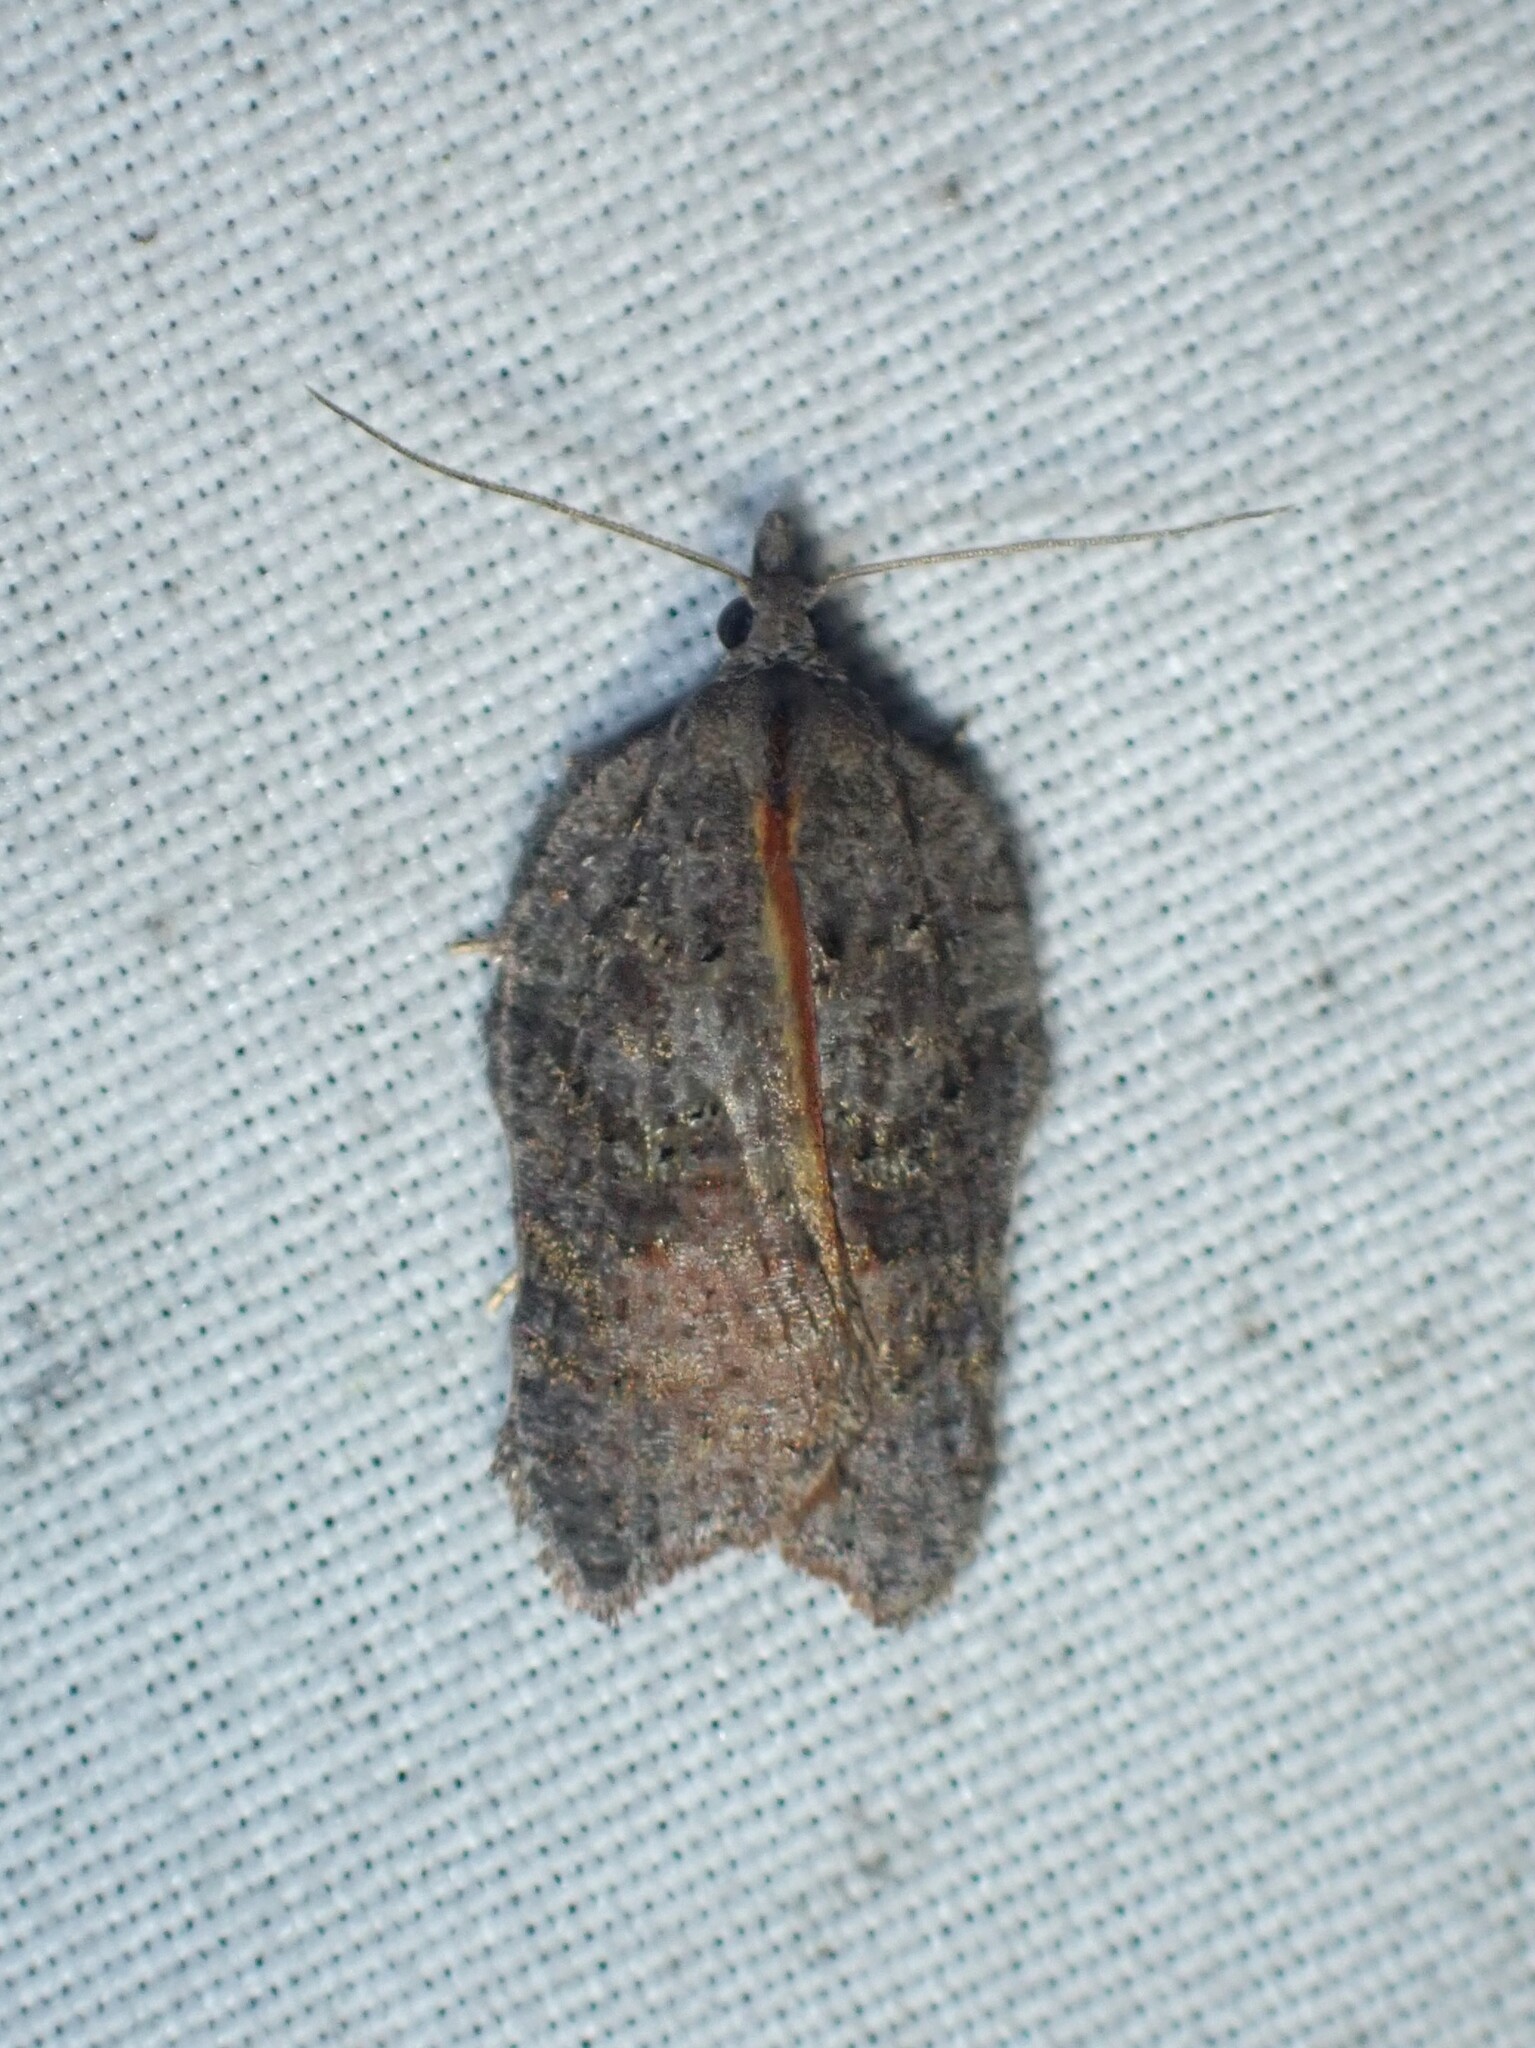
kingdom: Animalia
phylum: Arthropoda
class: Insecta
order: Lepidoptera
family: Tortricidae
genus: Acleris
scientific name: Acleris effractana
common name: Hook-winged tortrix moth
